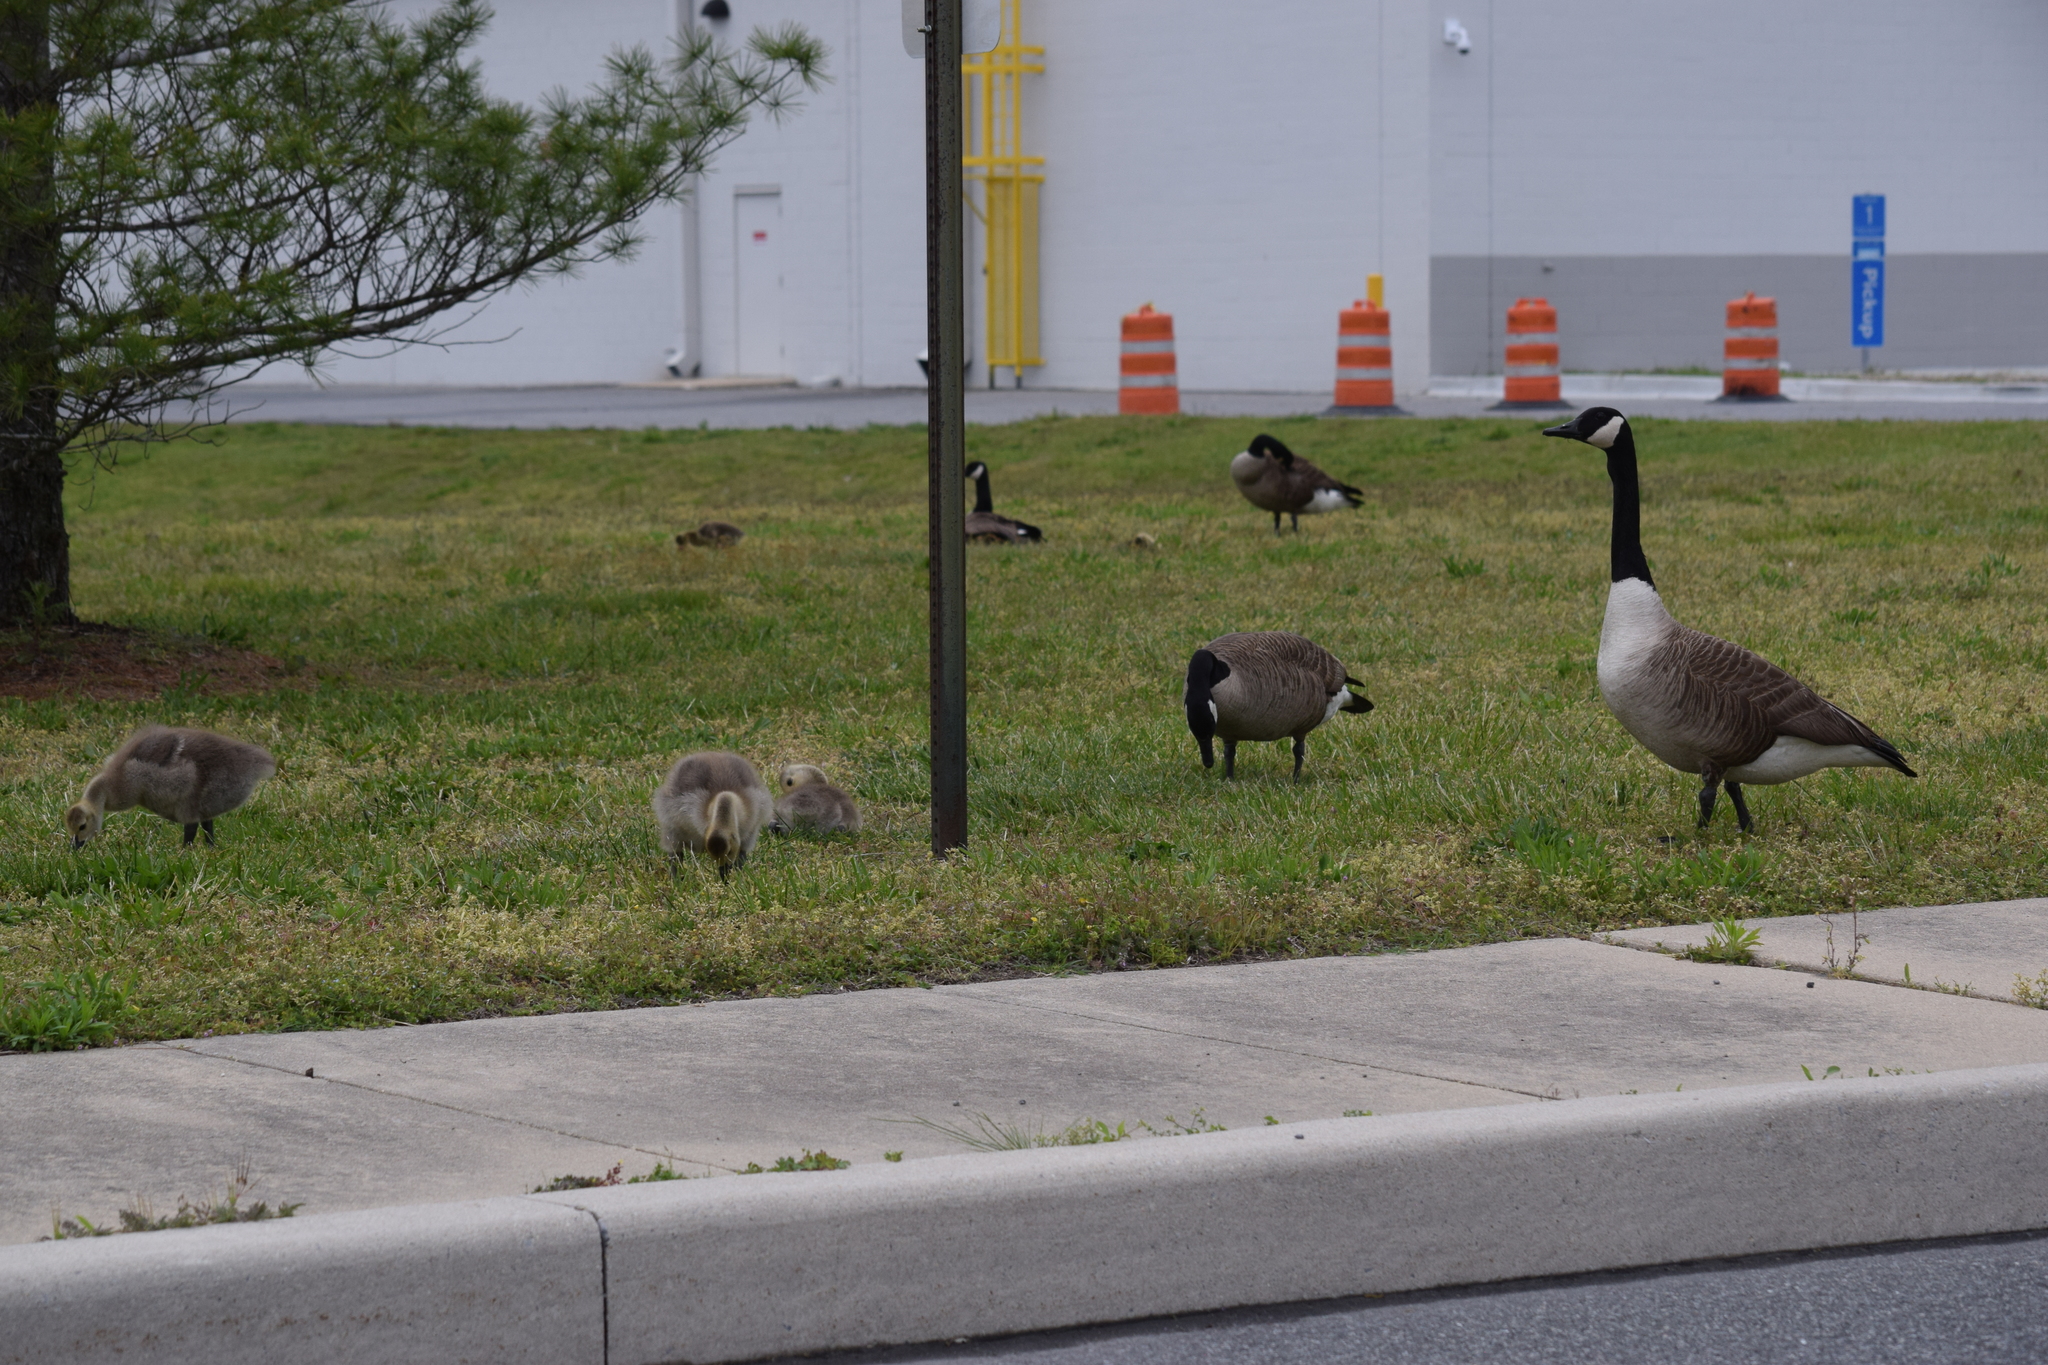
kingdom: Animalia
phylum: Chordata
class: Aves
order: Anseriformes
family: Anatidae
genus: Branta
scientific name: Branta canadensis
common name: Canada goose
